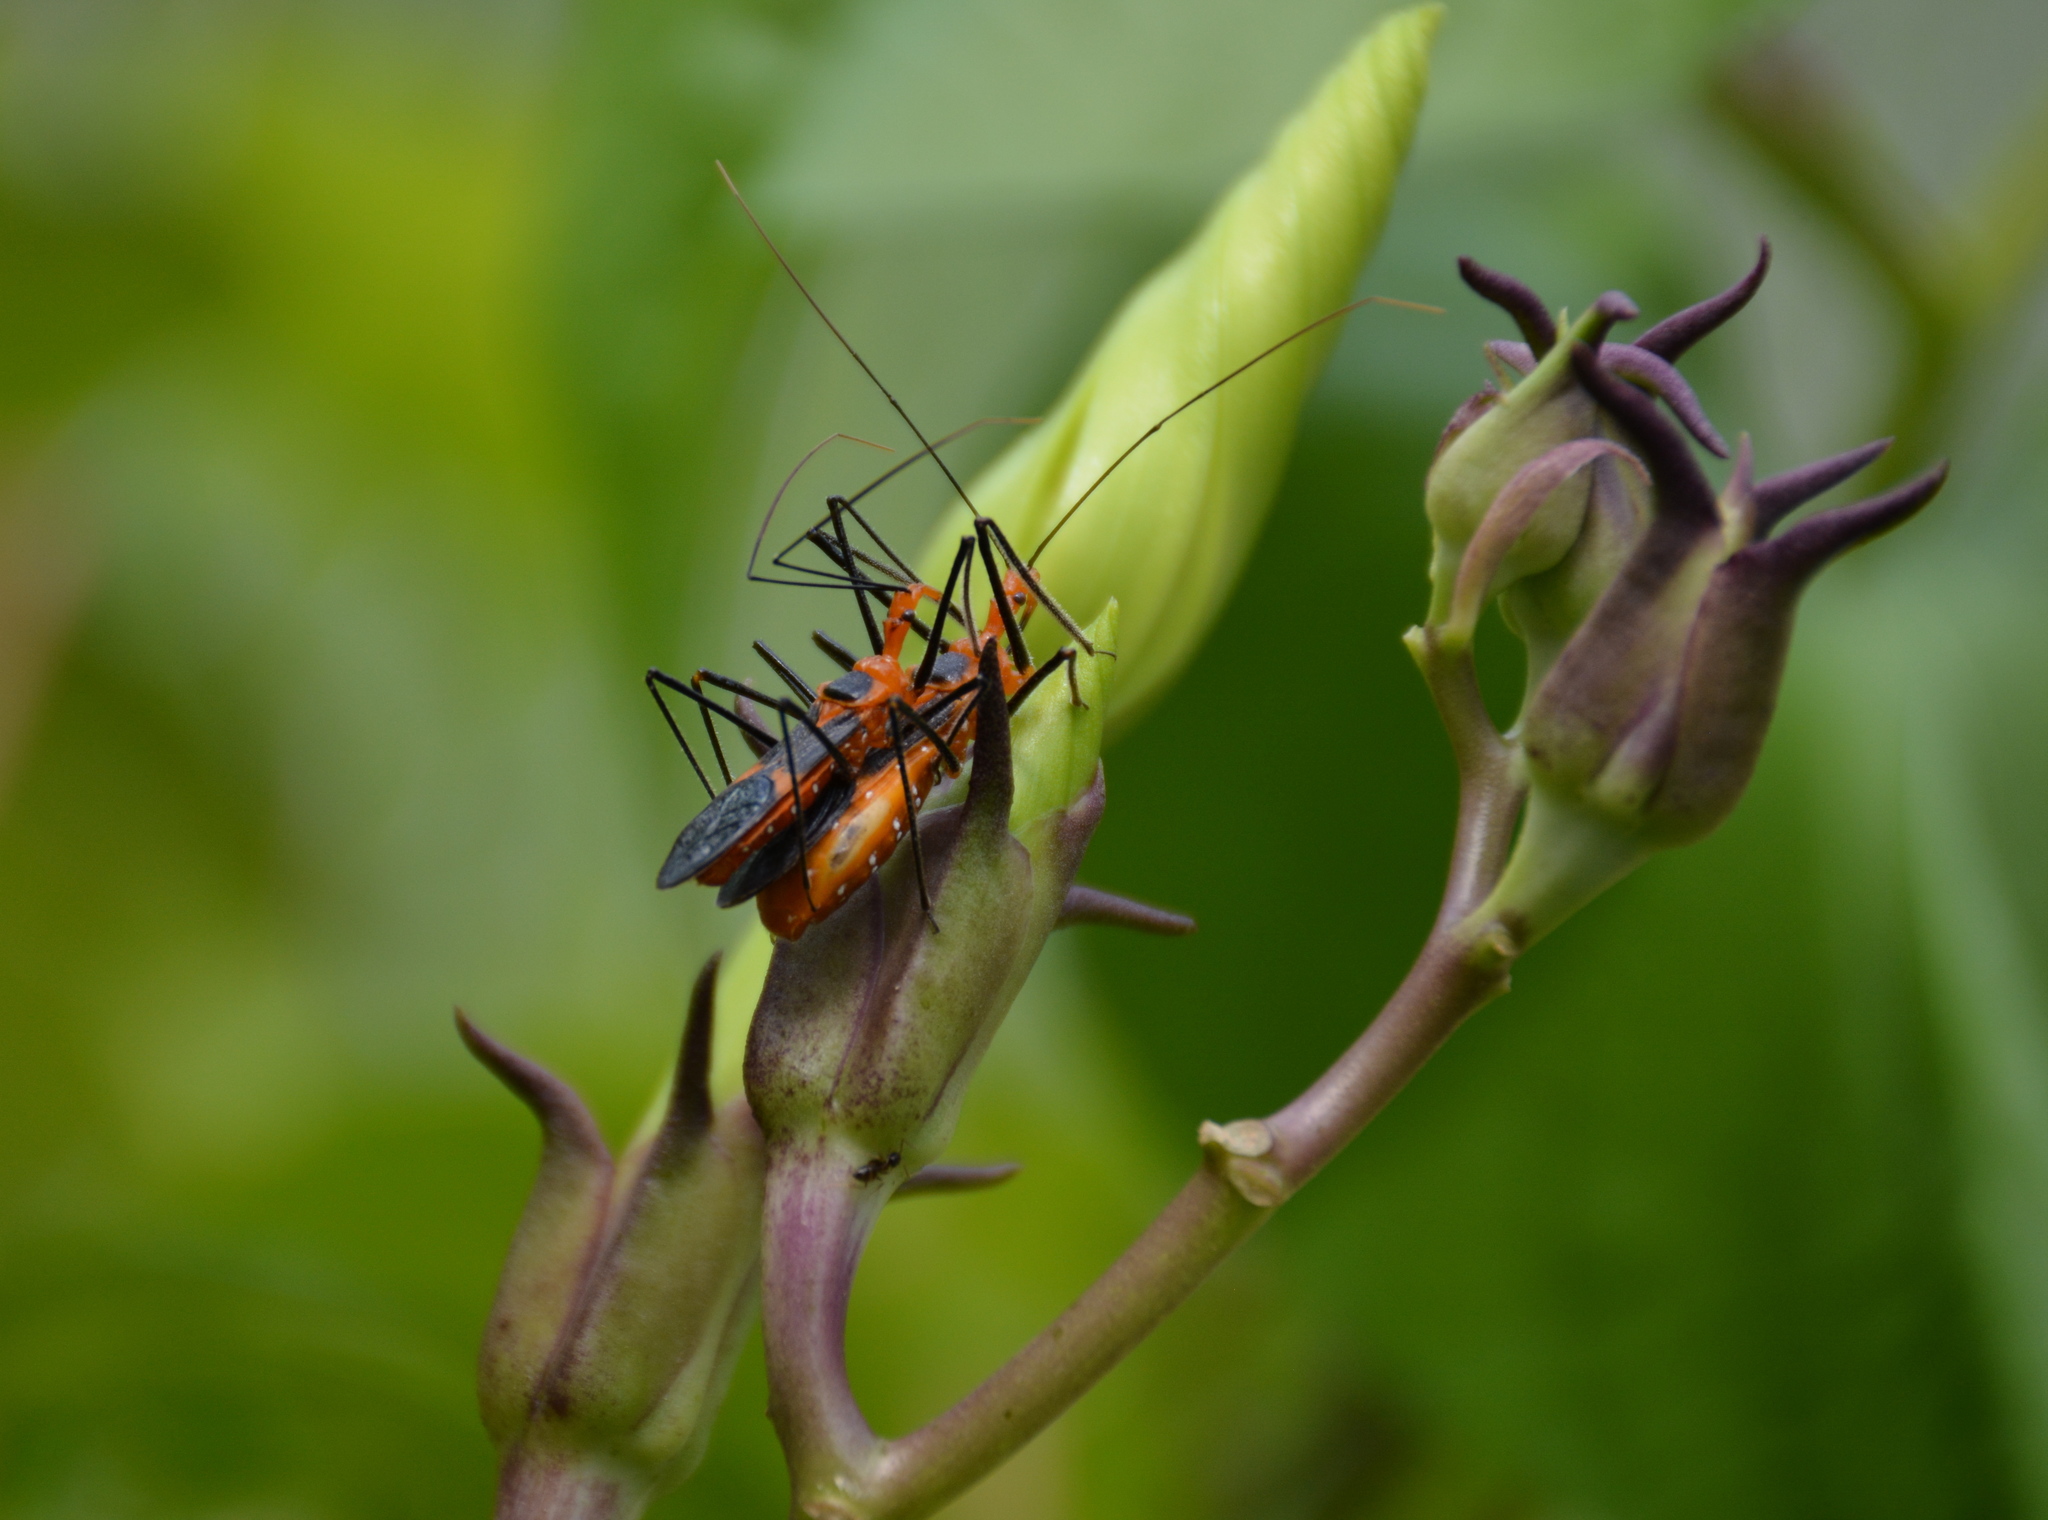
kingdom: Animalia
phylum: Arthropoda
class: Insecta
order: Hemiptera
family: Reduviidae
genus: Zelus
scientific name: Zelus longipes
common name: Milkweed assassin bug
